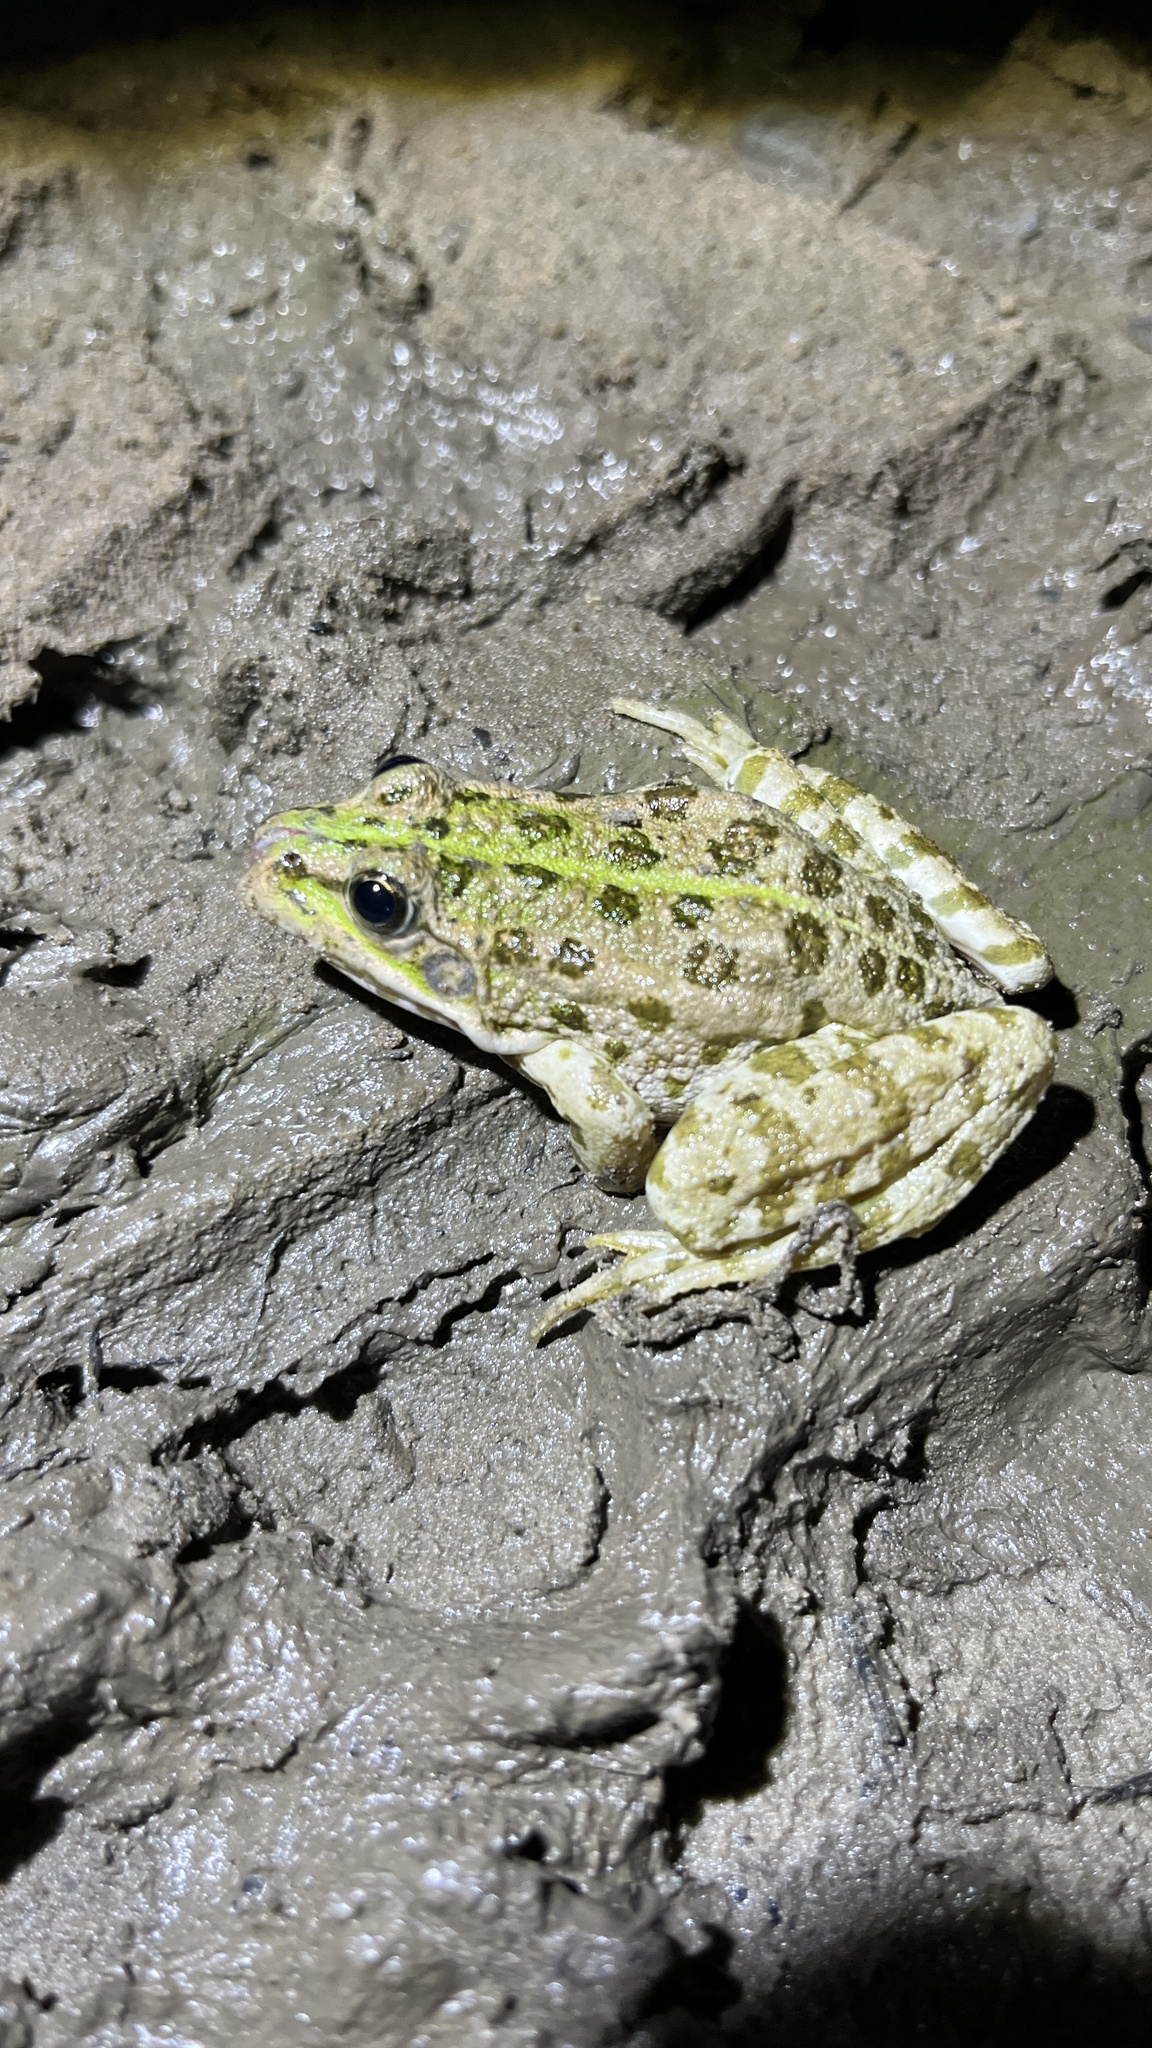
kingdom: Animalia
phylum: Chordata
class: Amphibia
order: Anura
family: Ranidae
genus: Pelophylax
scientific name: Pelophylax ridibundus
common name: Marsh frog
